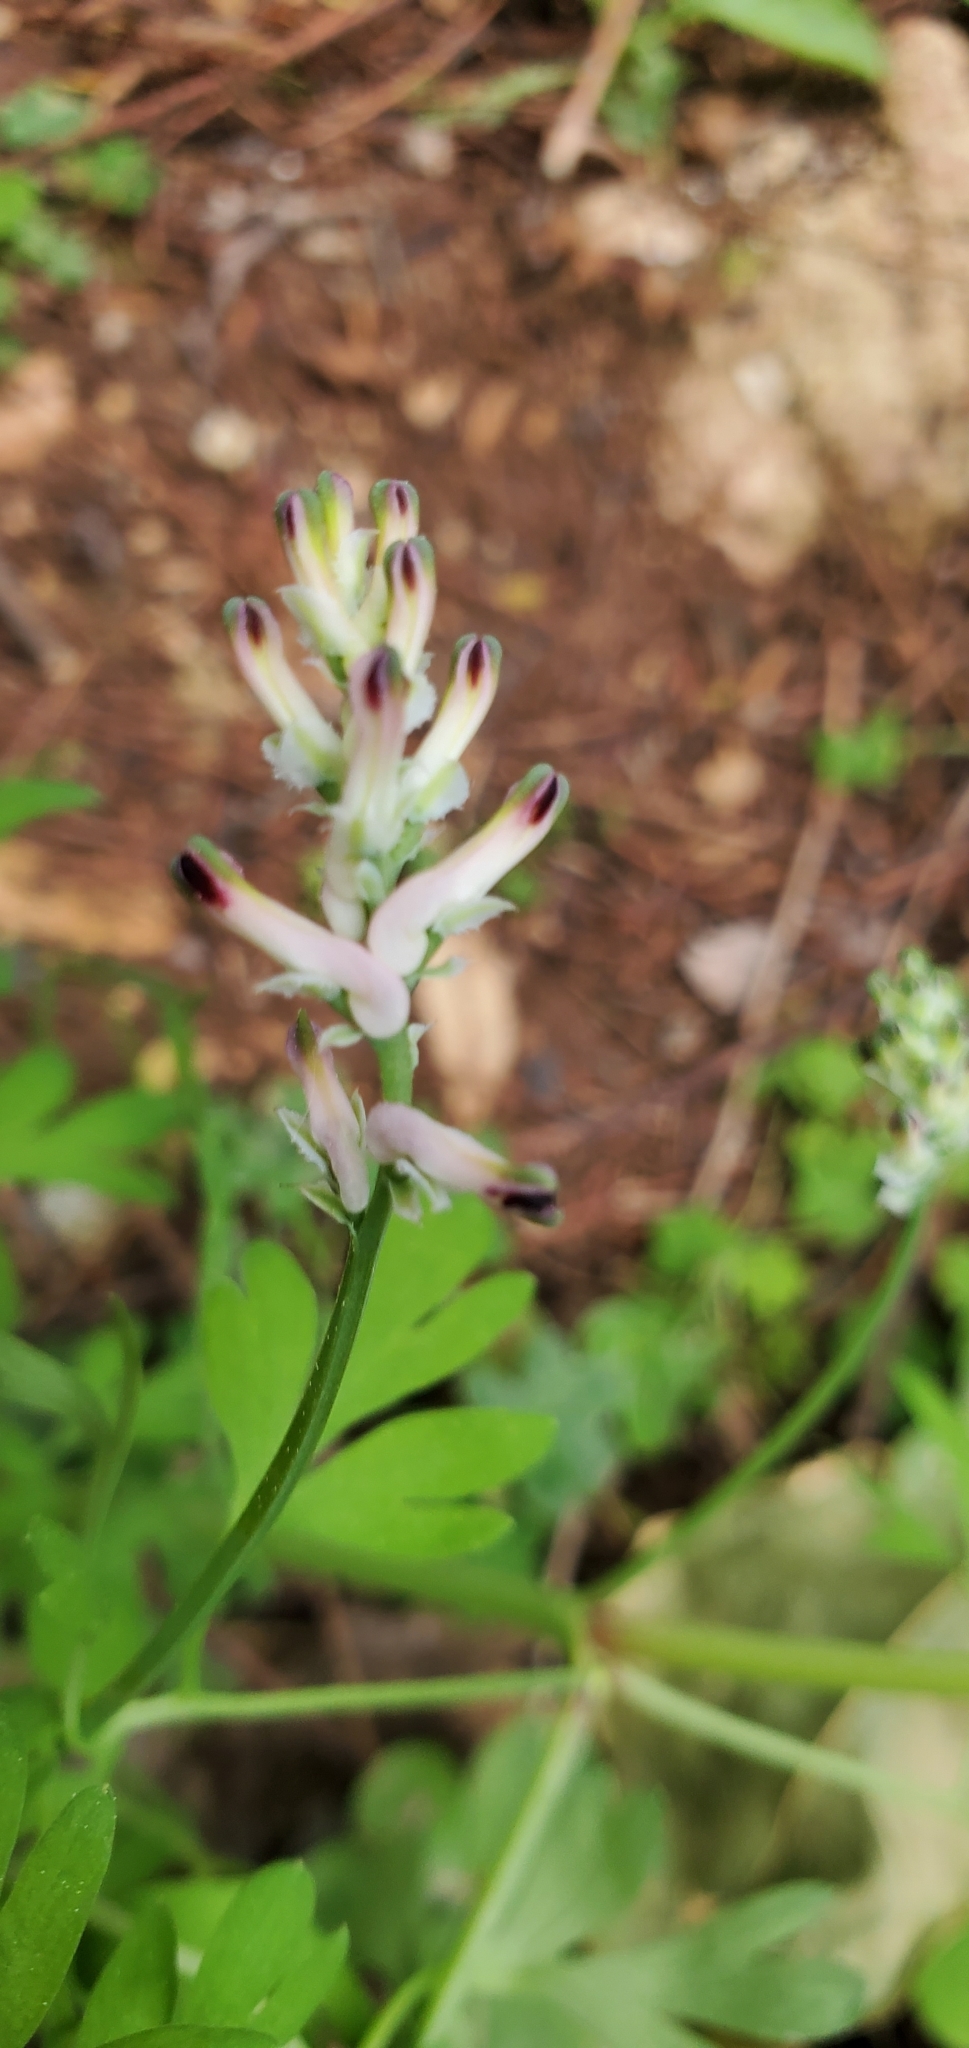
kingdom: Plantae
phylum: Tracheophyta
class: Magnoliopsida
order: Ranunculales
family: Papaveraceae
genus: Fumaria
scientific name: Fumaria capreolata
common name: White ramping-fumitory
